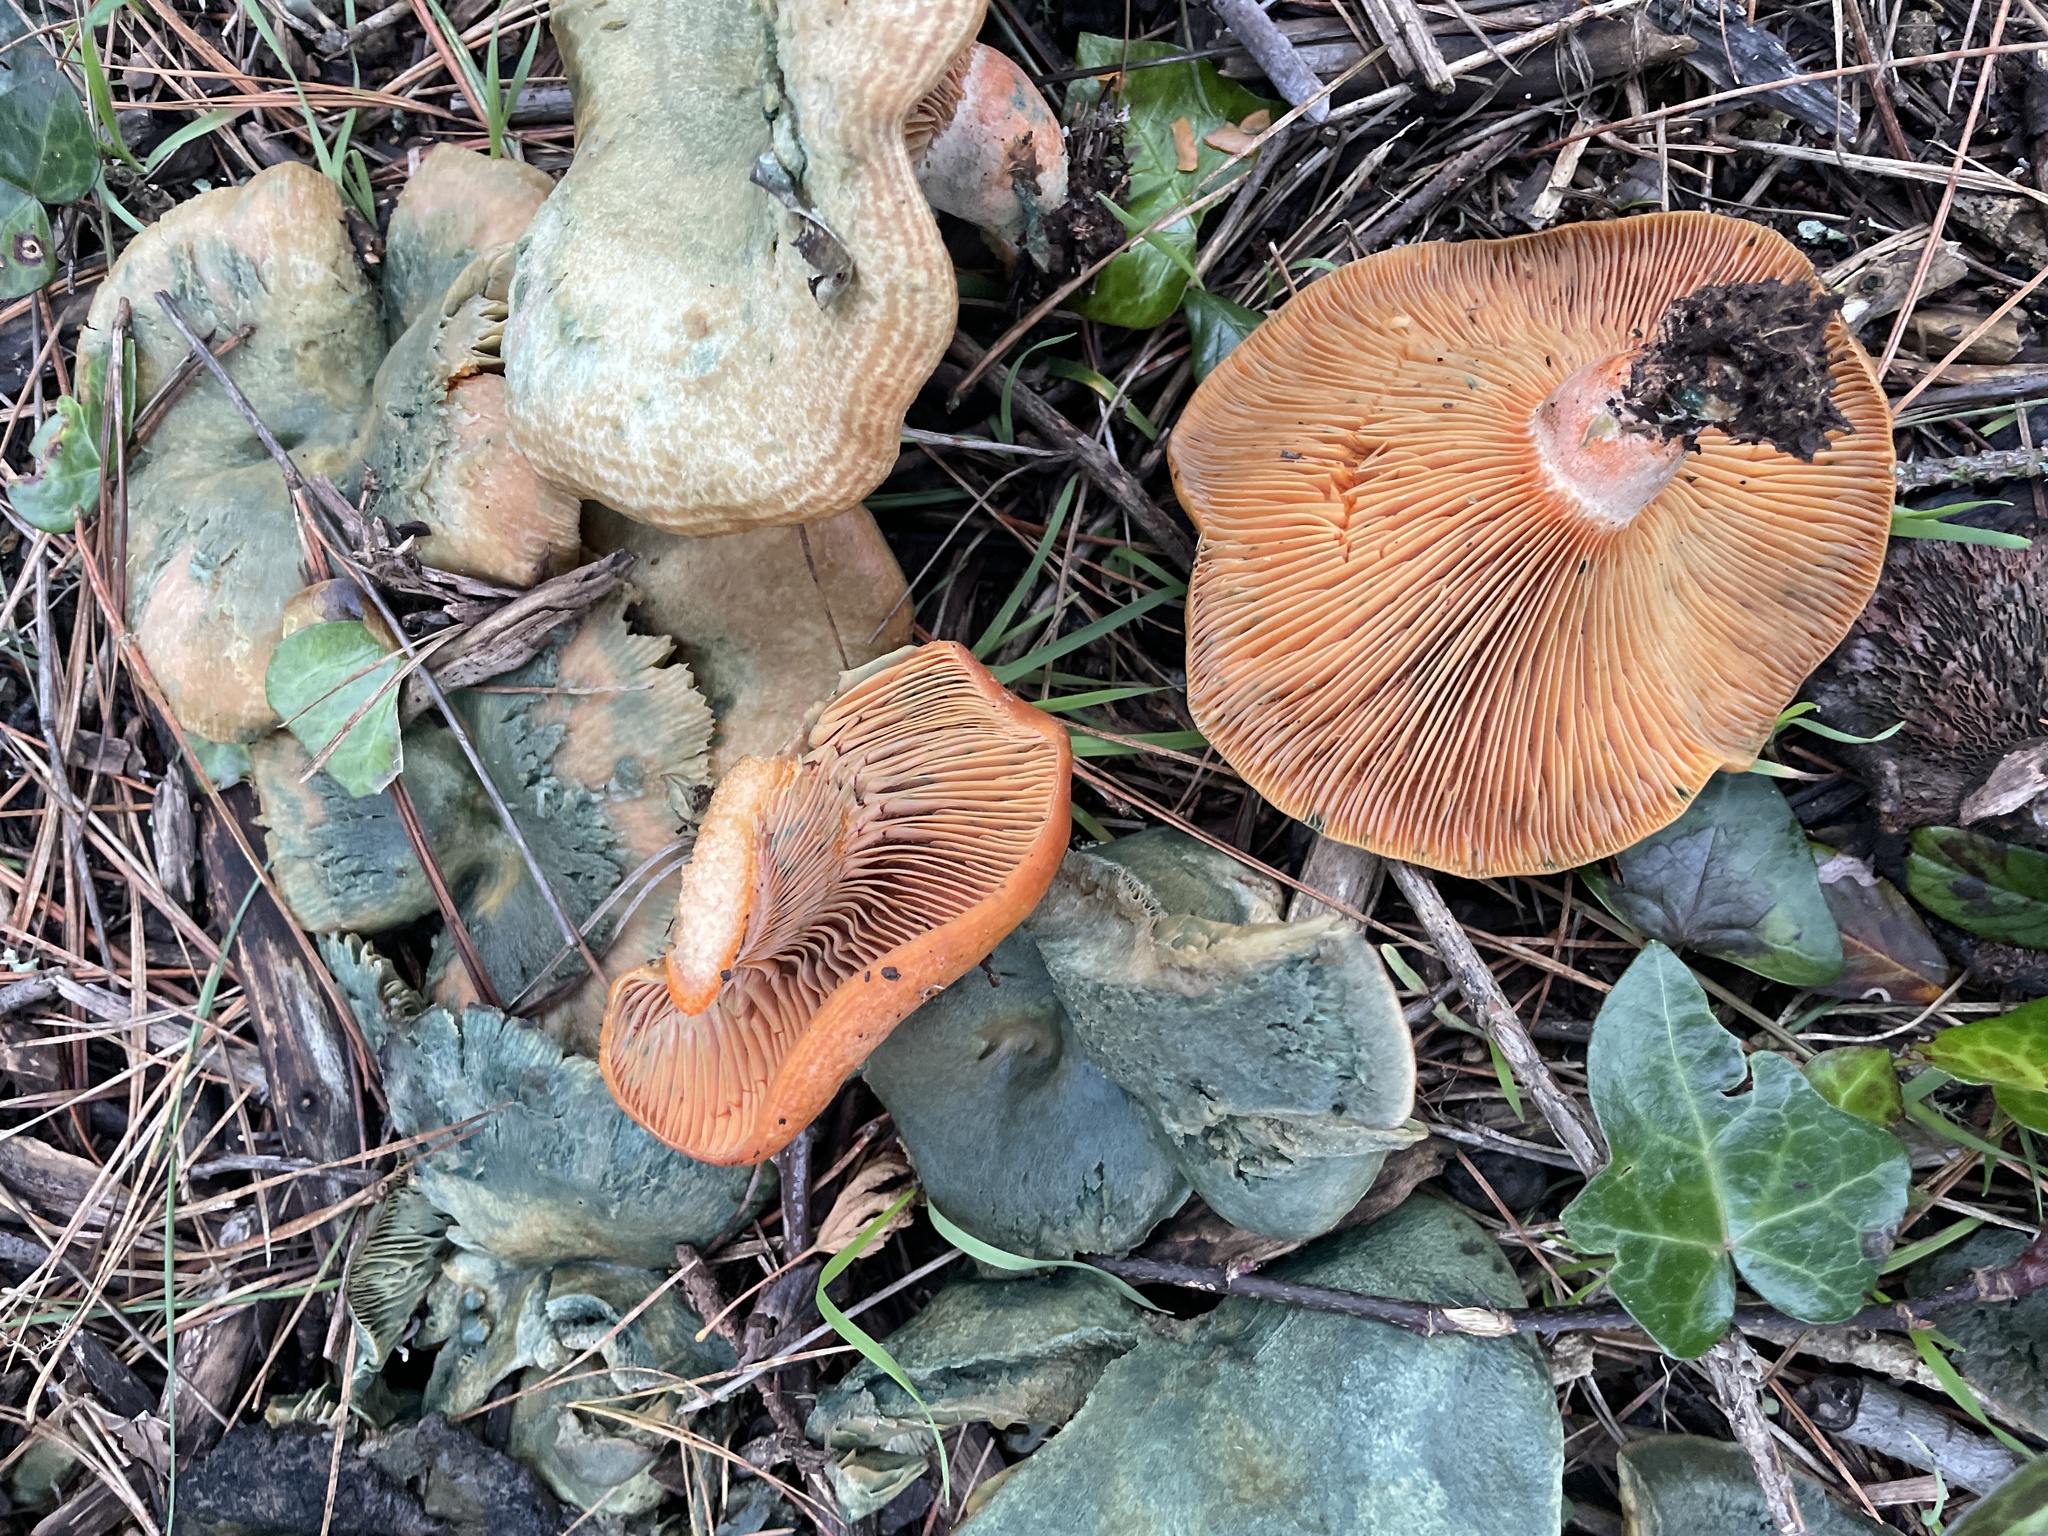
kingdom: Fungi
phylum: Basidiomycota
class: Agaricomycetes
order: Russulales
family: Russulaceae
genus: Lactarius
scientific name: Lactarius deliciosus
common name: Saffron milk-cap
